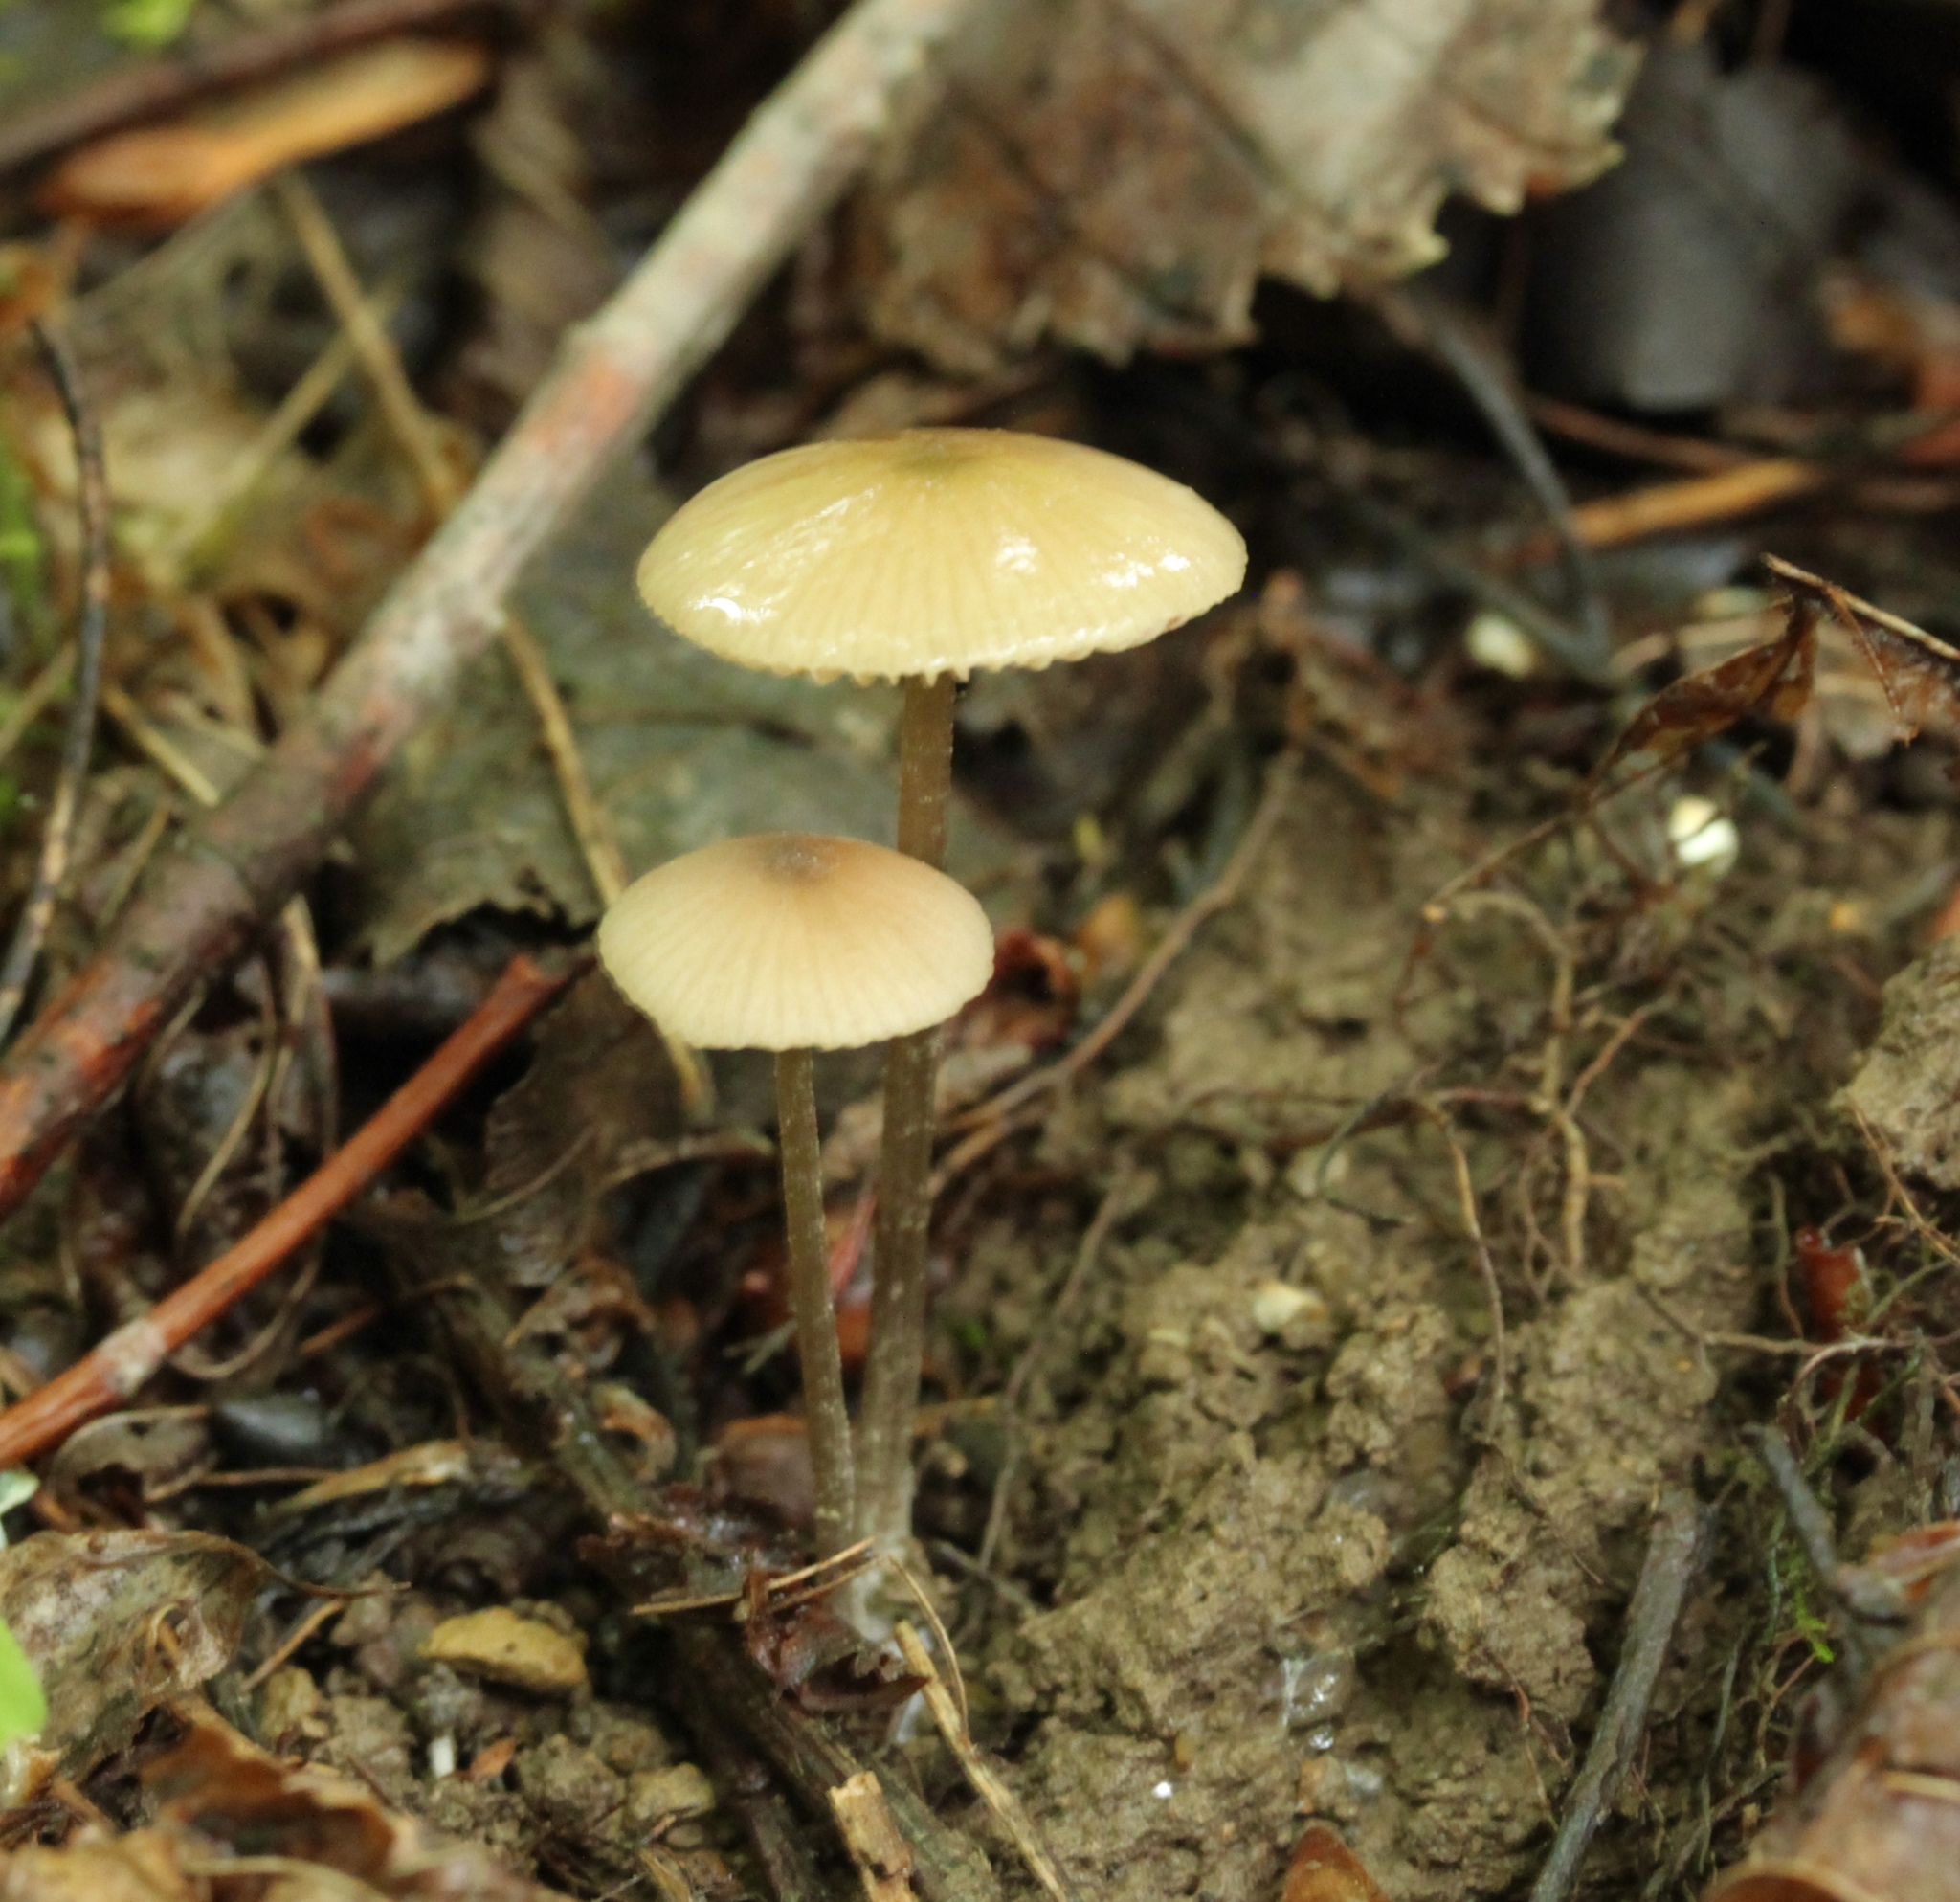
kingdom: Fungi
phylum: Basidiomycota
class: Agaricomycetes
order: Agaricales
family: Physalacriaceae
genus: Rhizomarasmius
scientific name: Rhizomarasmius pyrrhocephalus
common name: Hairy long stem marasmius
